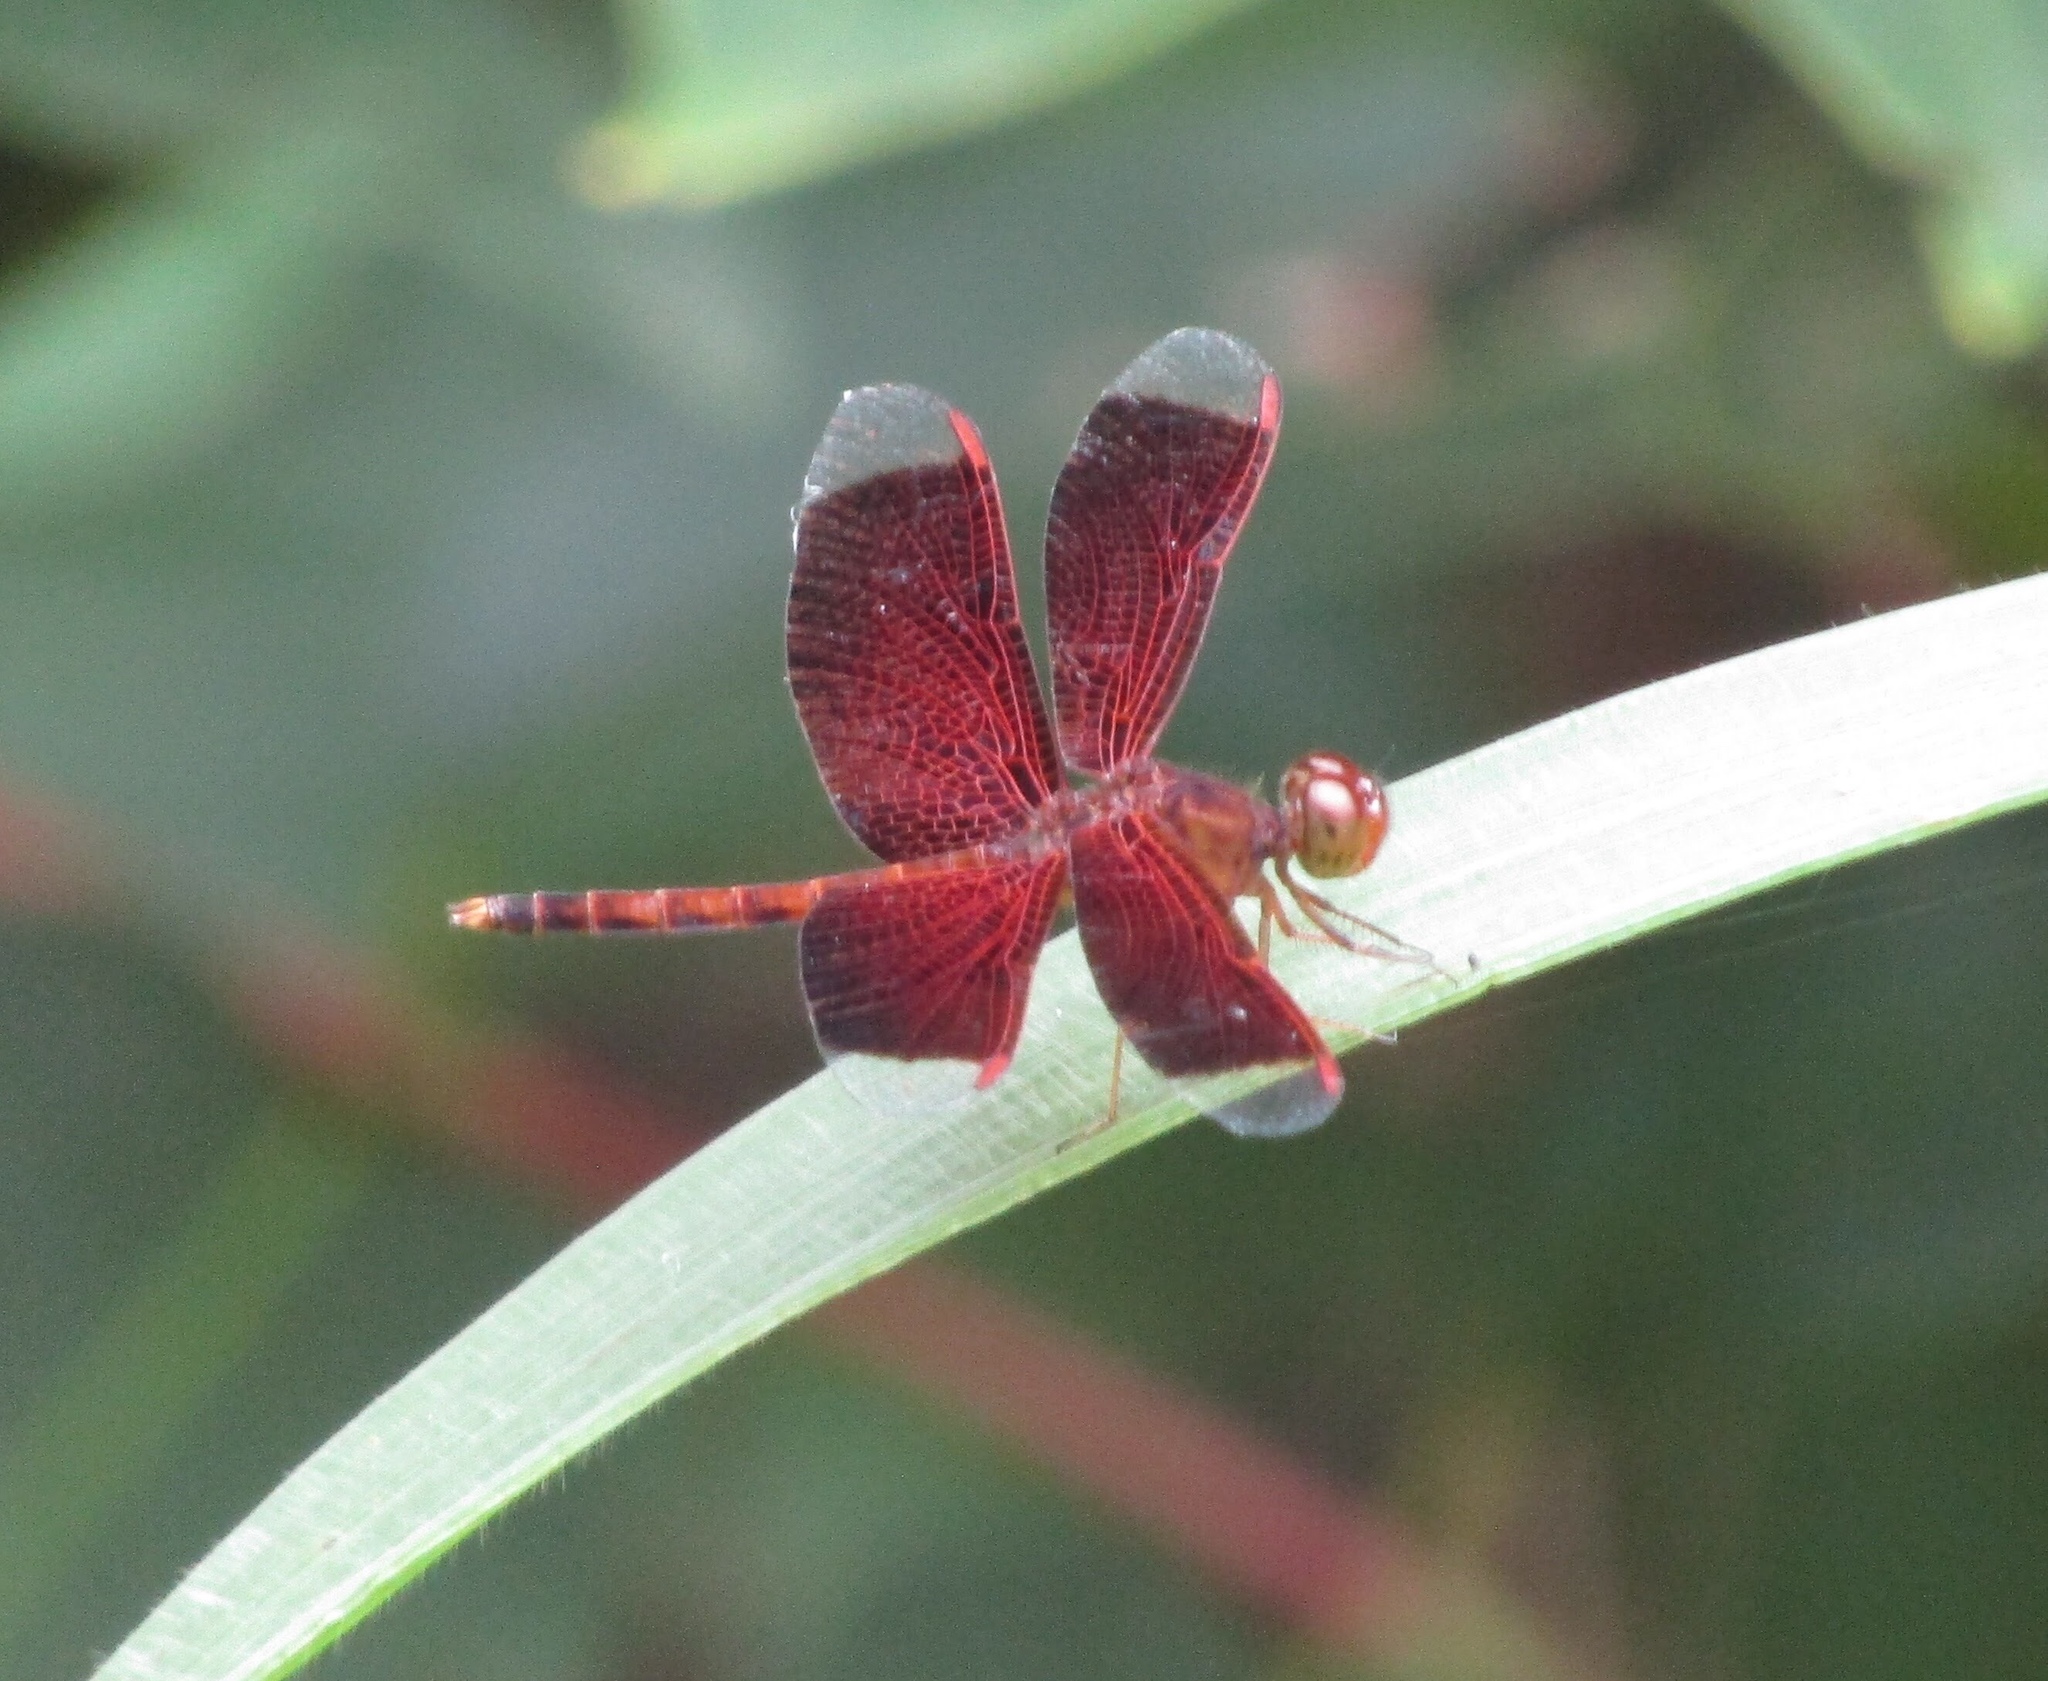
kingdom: Animalia
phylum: Arthropoda
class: Insecta
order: Odonata
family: Libellulidae
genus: Neurothemis
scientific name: Neurothemis fluctuans
